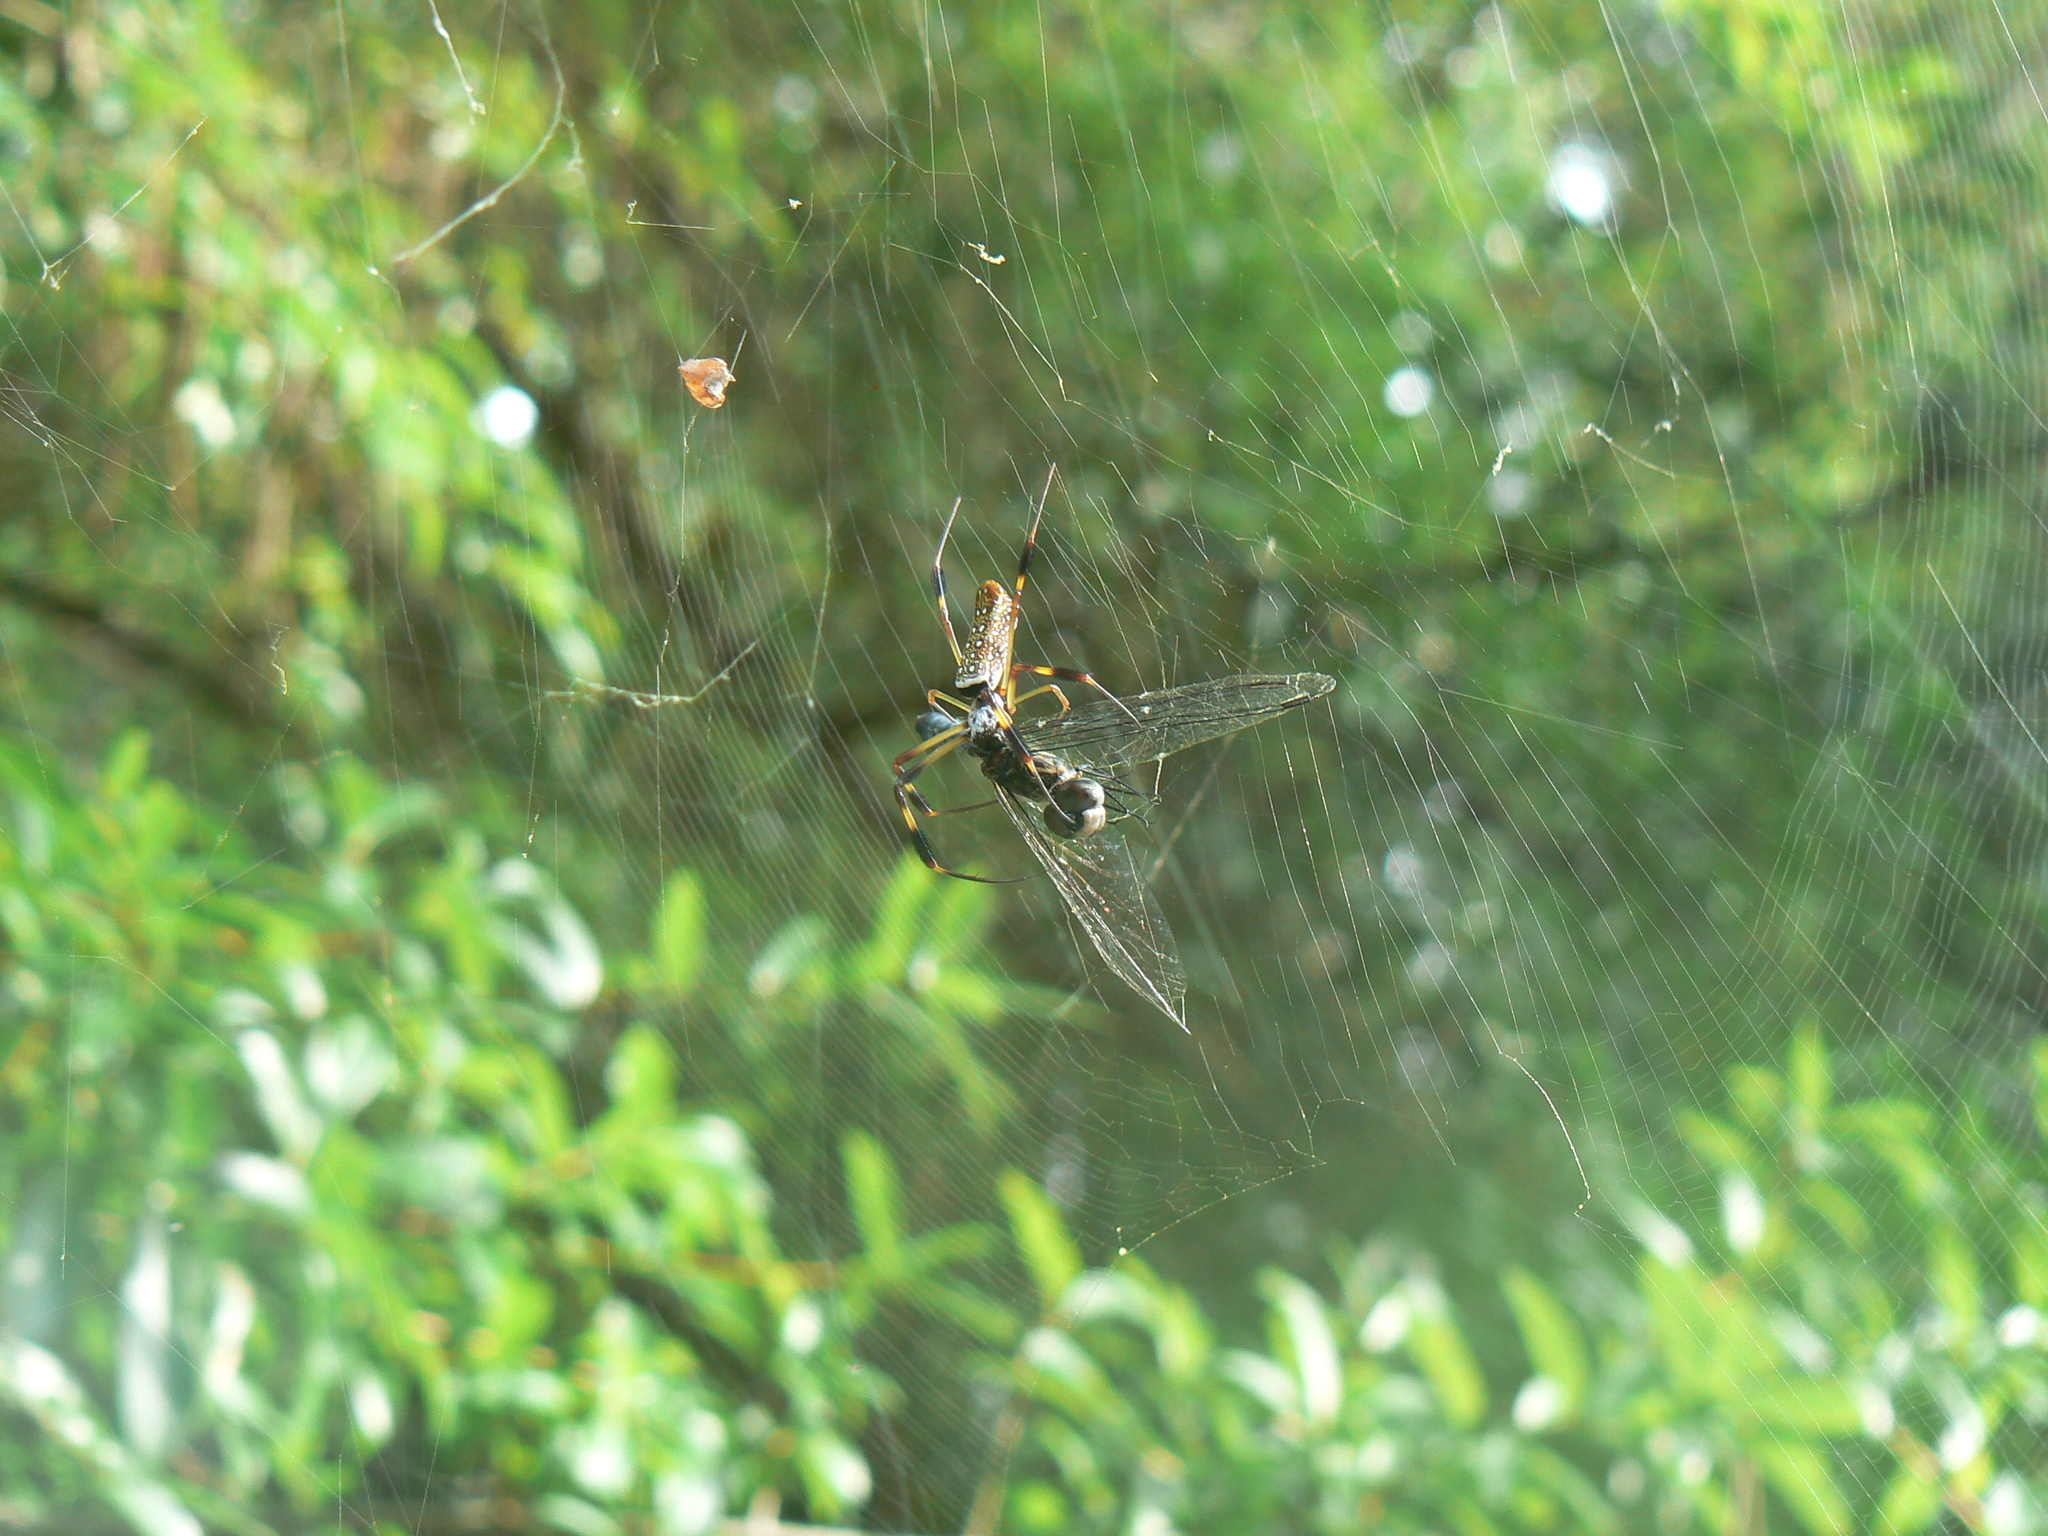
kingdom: Animalia
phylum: Arthropoda
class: Arachnida
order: Araneae
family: Araneidae
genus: Trichonephila
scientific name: Trichonephila clavipes
